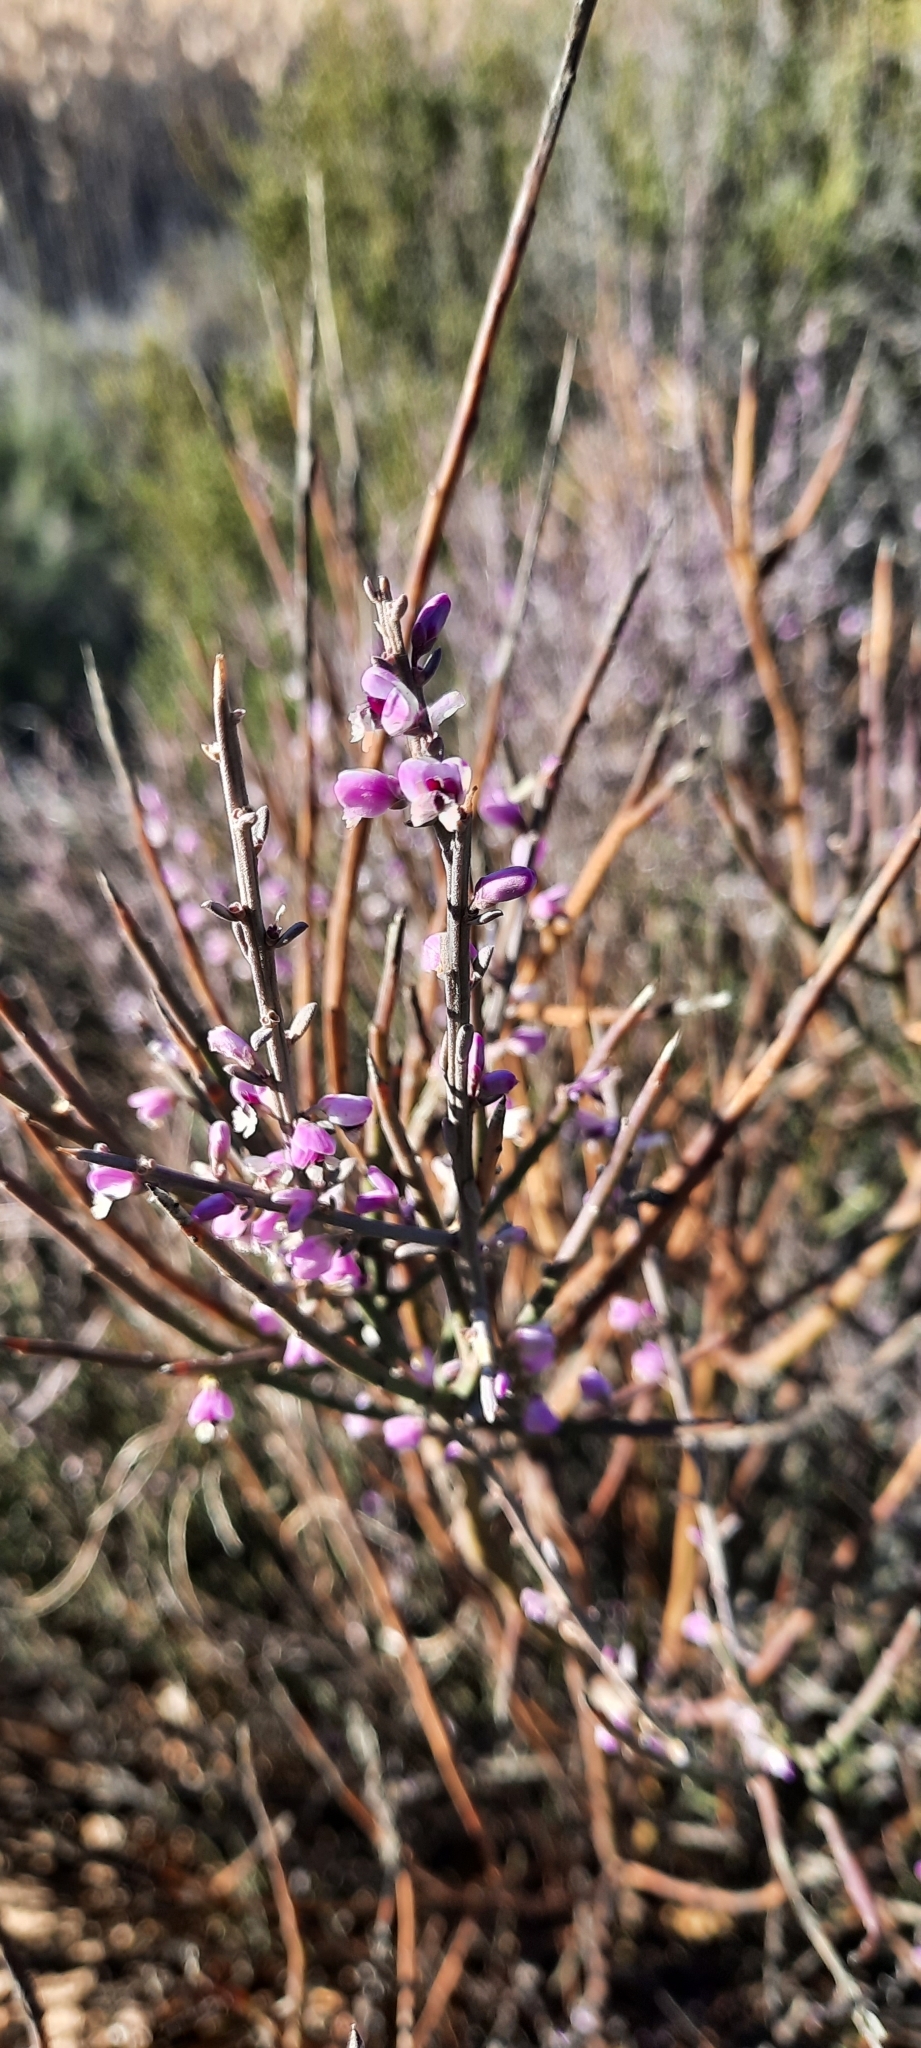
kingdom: Plantae
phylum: Tracheophyta
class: Magnoliopsida
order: Fabales
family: Polygalaceae
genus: Muraltia
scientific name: Muraltia spinosa
